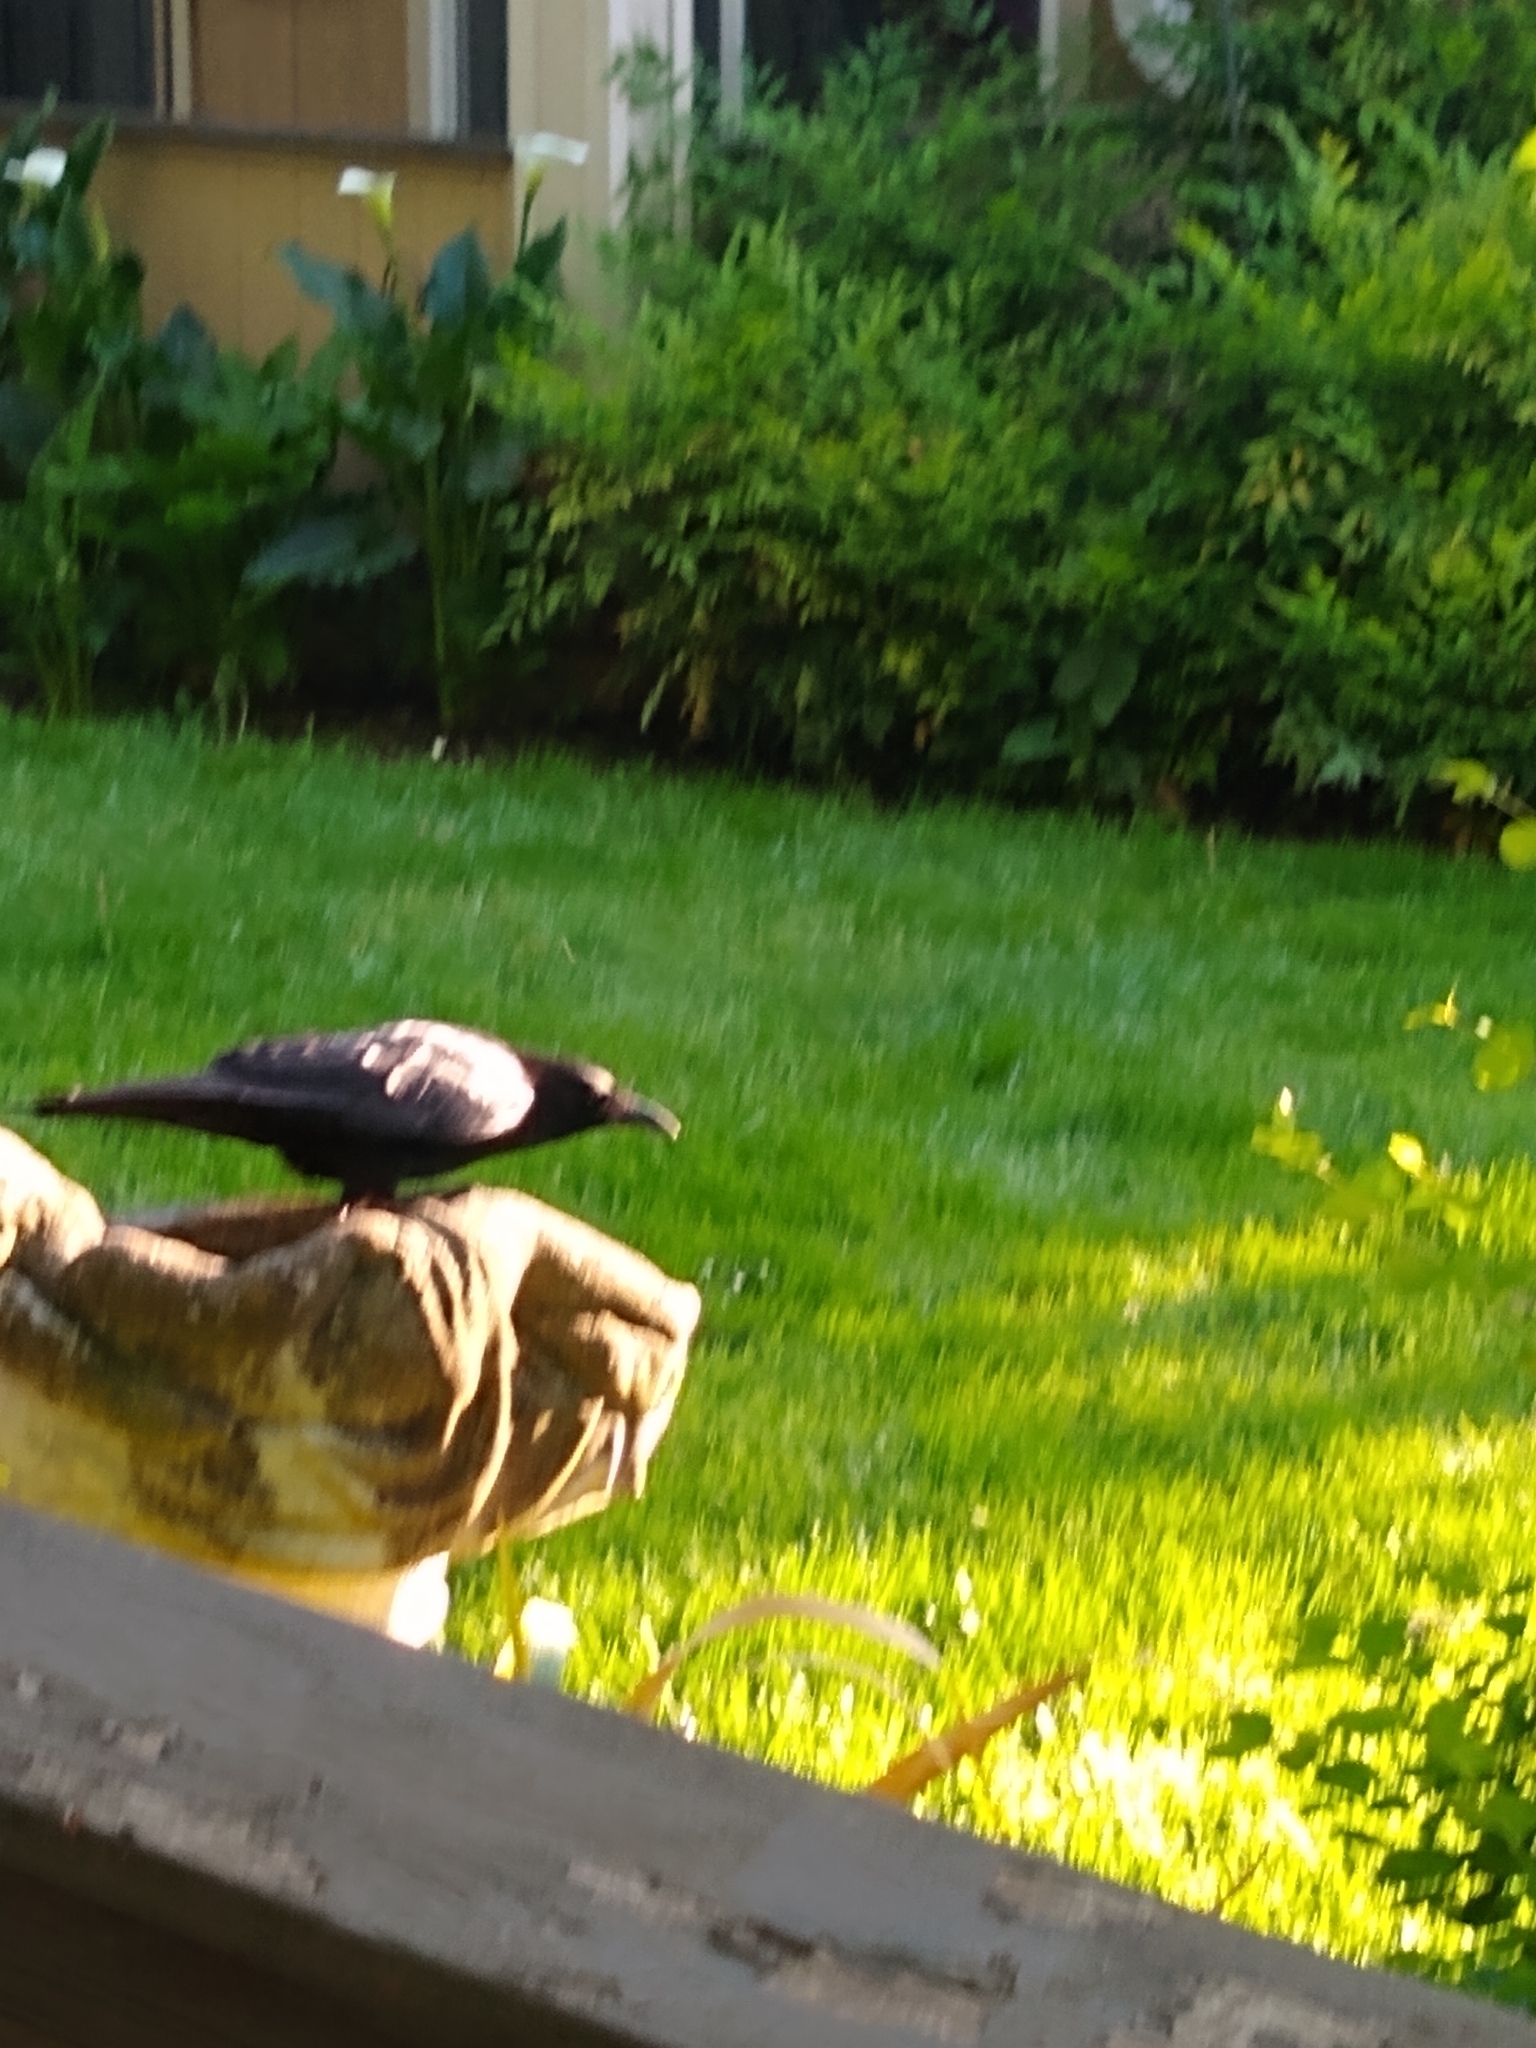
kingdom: Animalia
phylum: Chordata
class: Aves
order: Passeriformes
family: Corvidae
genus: Corvus
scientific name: Corvus brachyrhynchos
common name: American crow
